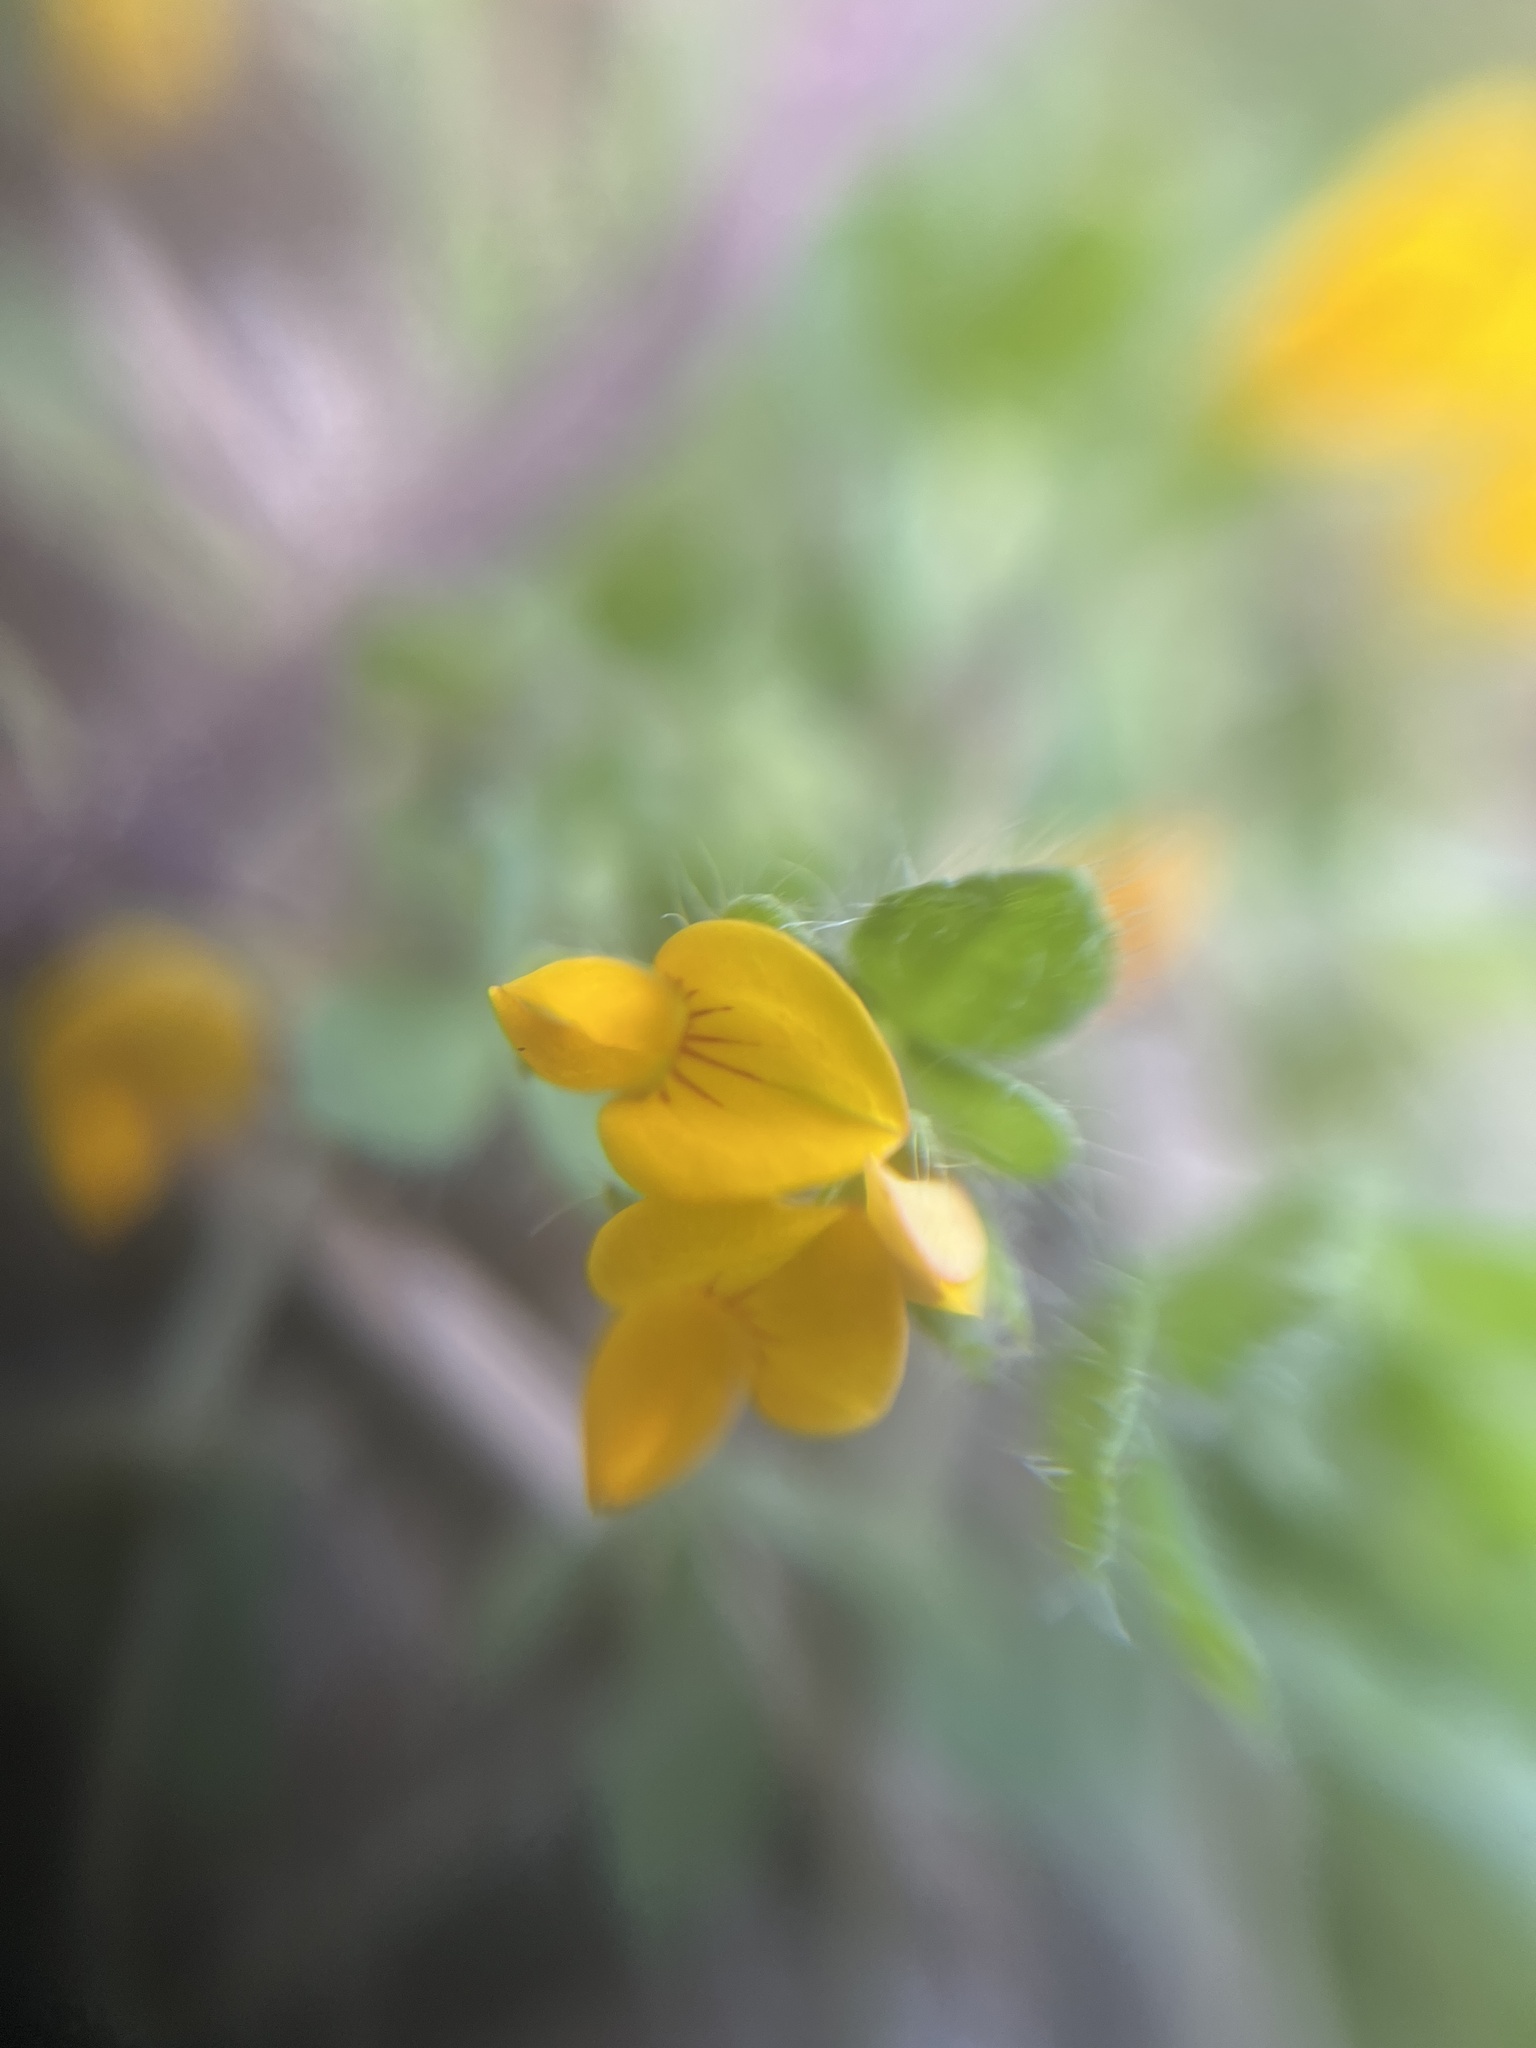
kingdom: Plantae
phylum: Tracheophyta
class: Magnoliopsida
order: Fabales
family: Fabaceae
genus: Lotus
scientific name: Lotus subbiflorus
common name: Hairy bird's-foot trefoil
